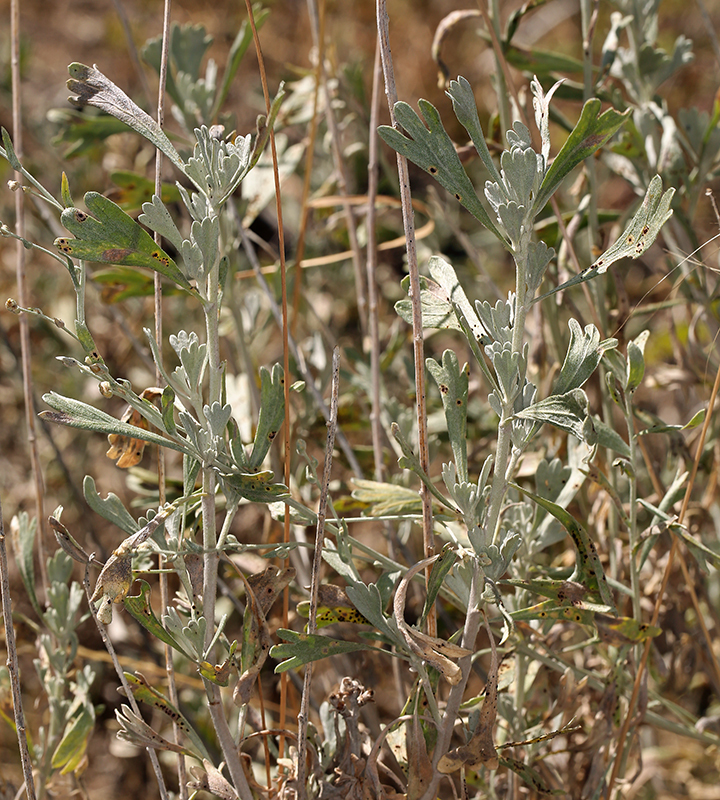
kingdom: Plantae
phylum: Tracheophyta
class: Magnoliopsida
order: Asterales
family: Asteraceae
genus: Artemisia
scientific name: Artemisia spiciformis
